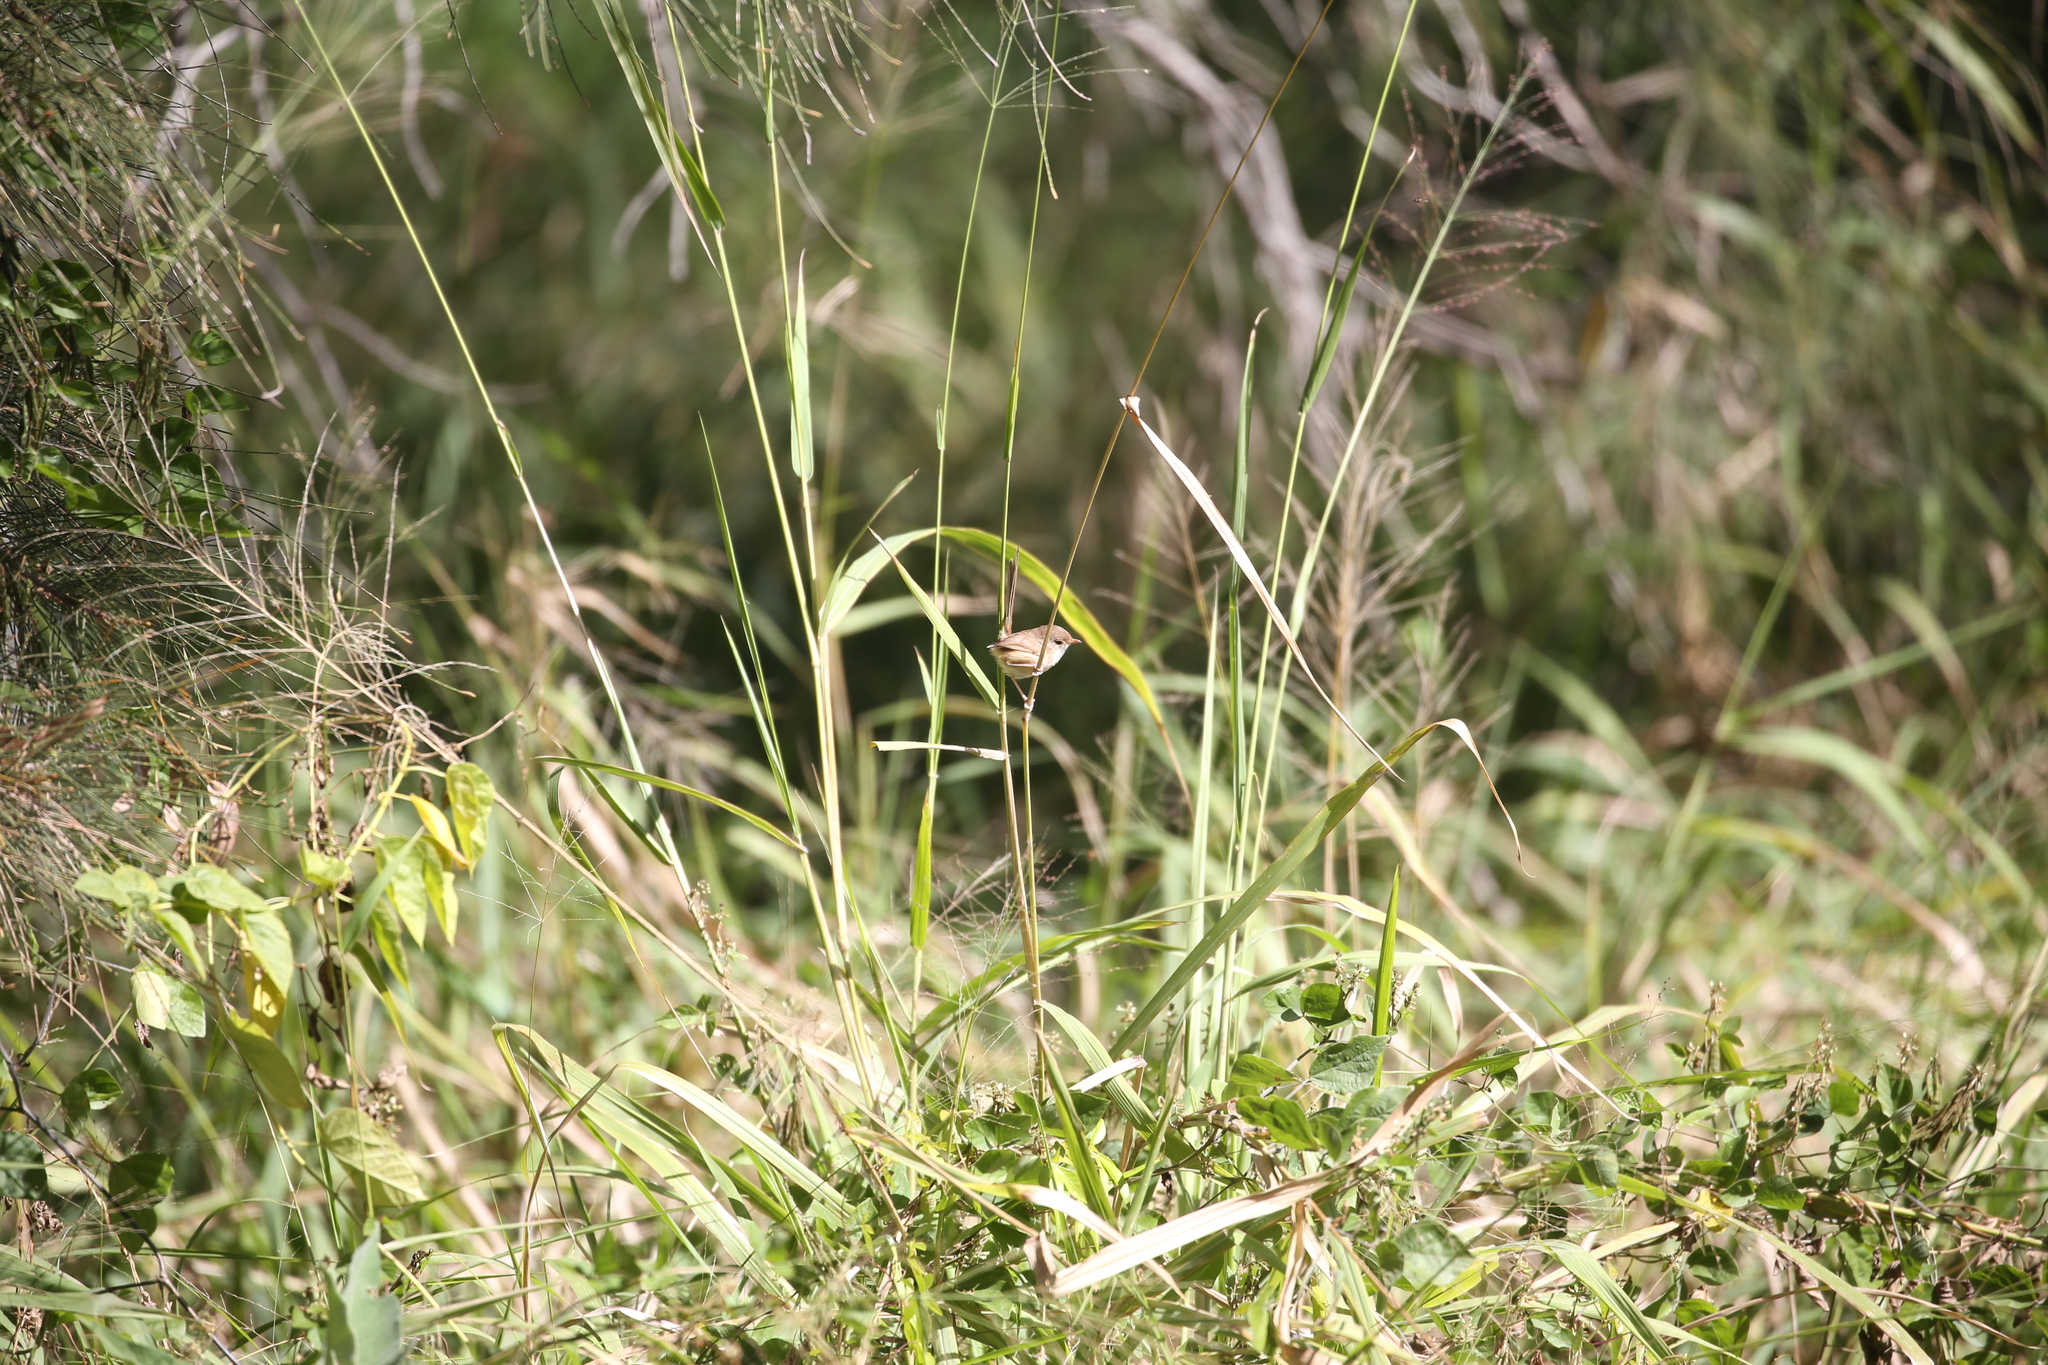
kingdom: Animalia
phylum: Chordata
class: Aves
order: Passeriformes
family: Maluridae
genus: Malurus
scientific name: Malurus melanocephalus
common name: Red-backed fairywren
